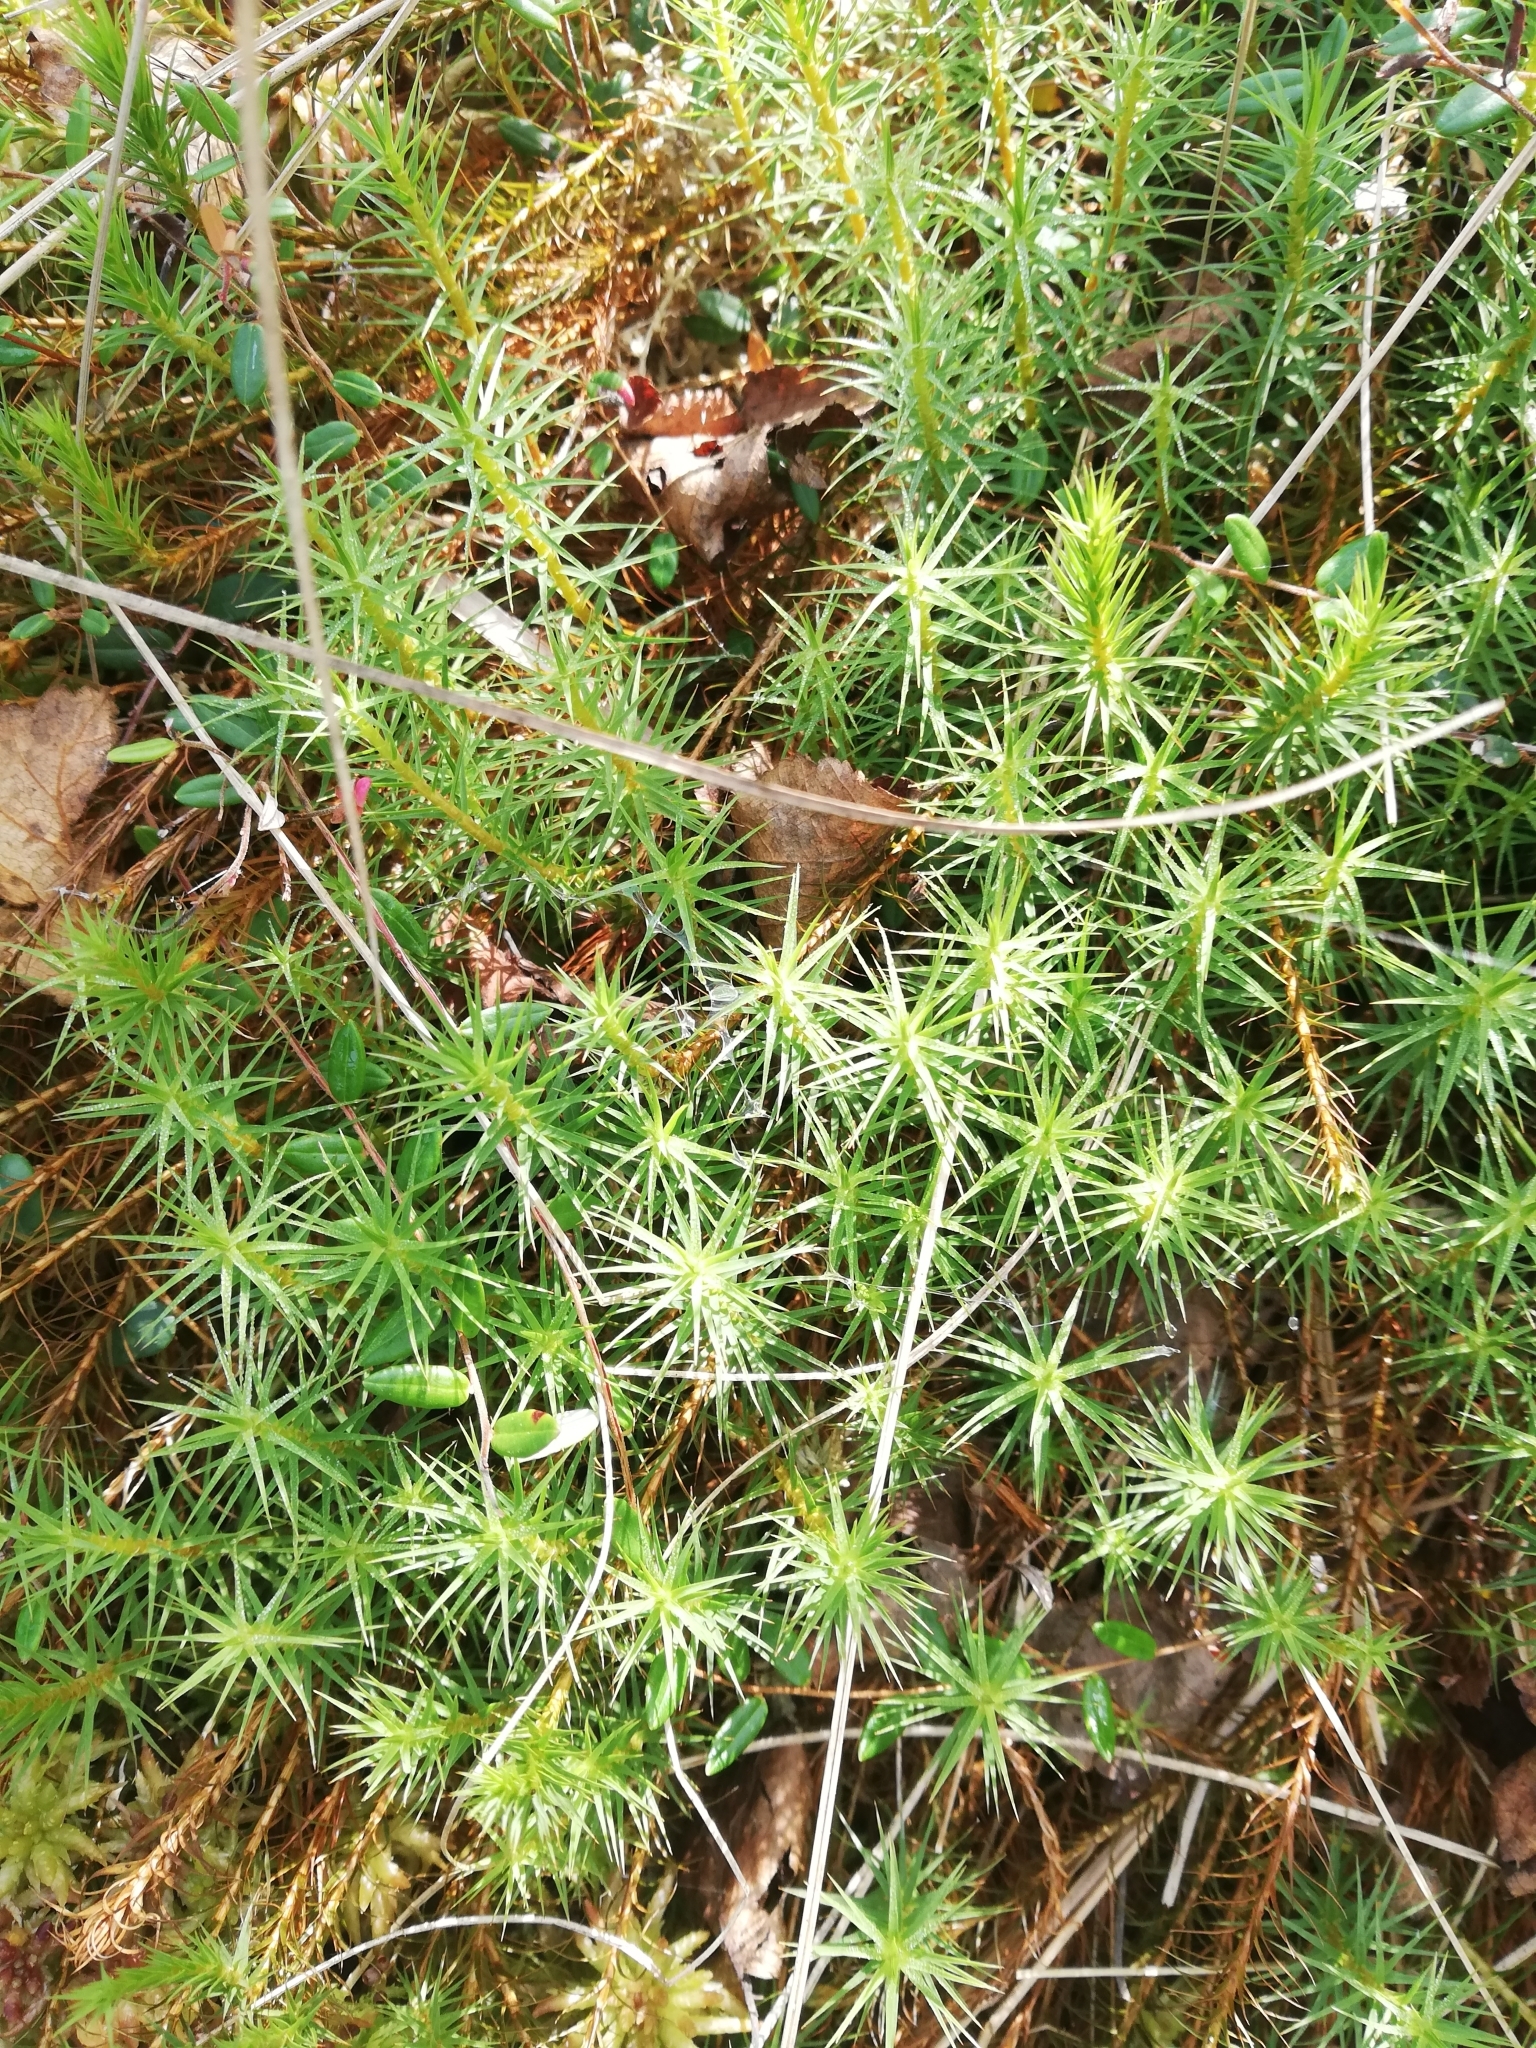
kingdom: Plantae
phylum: Bryophyta
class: Polytrichopsida
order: Polytrichales
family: Polytrichaceae
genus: Polytrichum
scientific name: Polytrichum commune
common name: Common haircap
